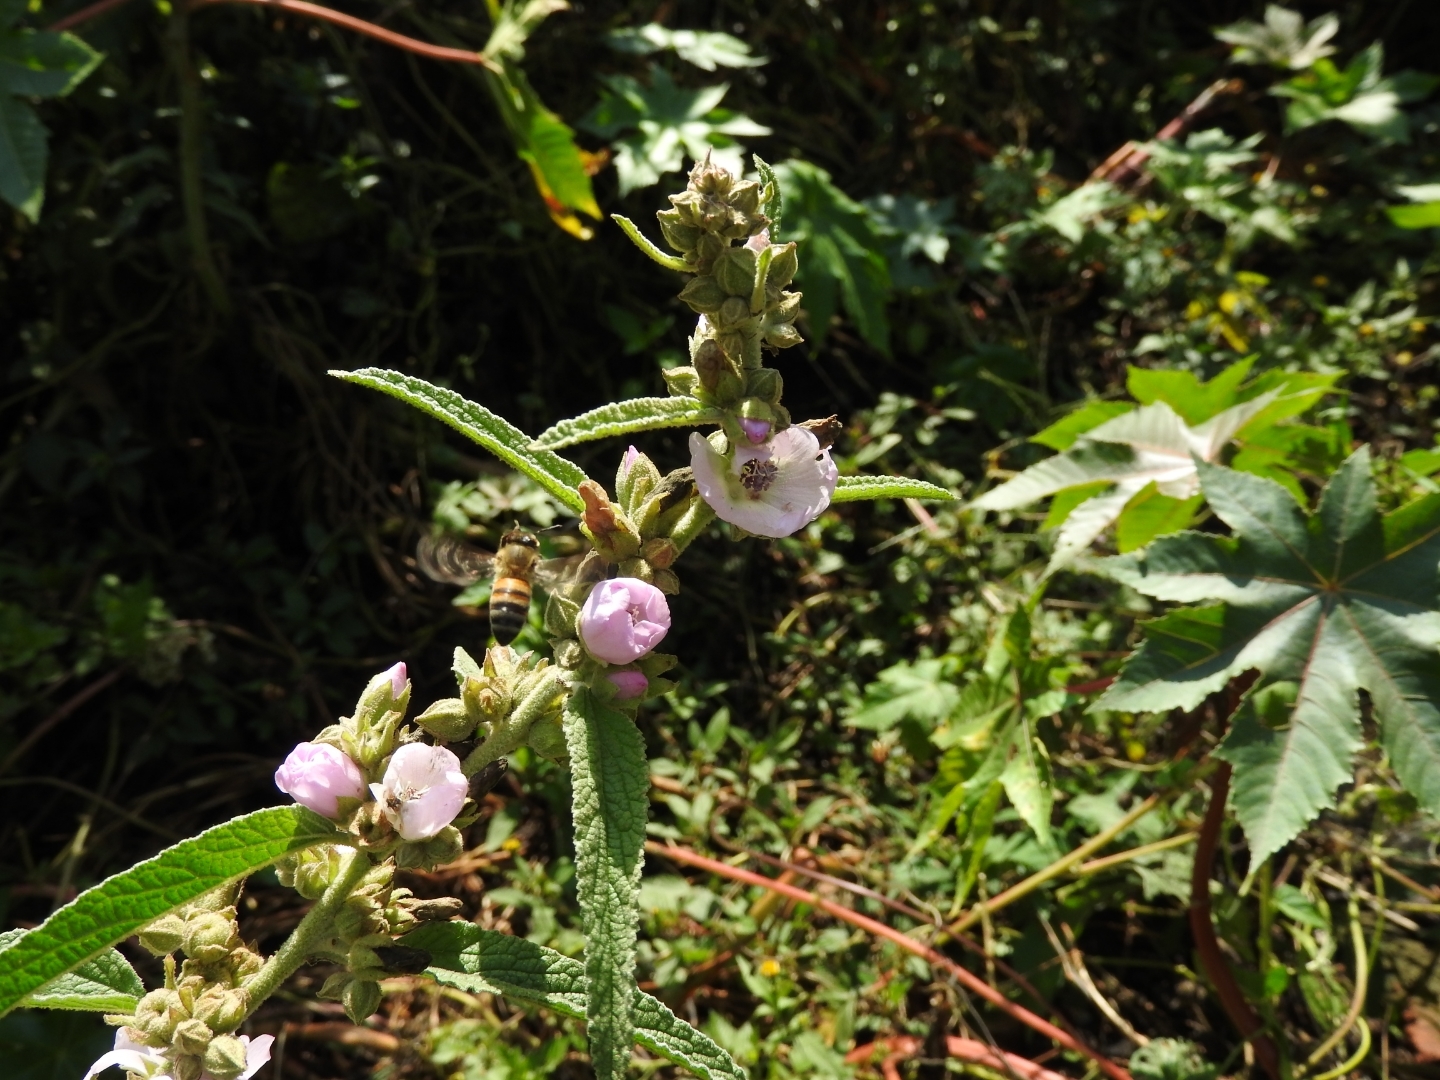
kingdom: Plantae
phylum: Tracheophyta
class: Magnoliopsida
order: Malvales
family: Malvaceae
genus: Sphaeralcea
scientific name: Sphaeralcea angustifolia
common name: Copper globe-mallow
